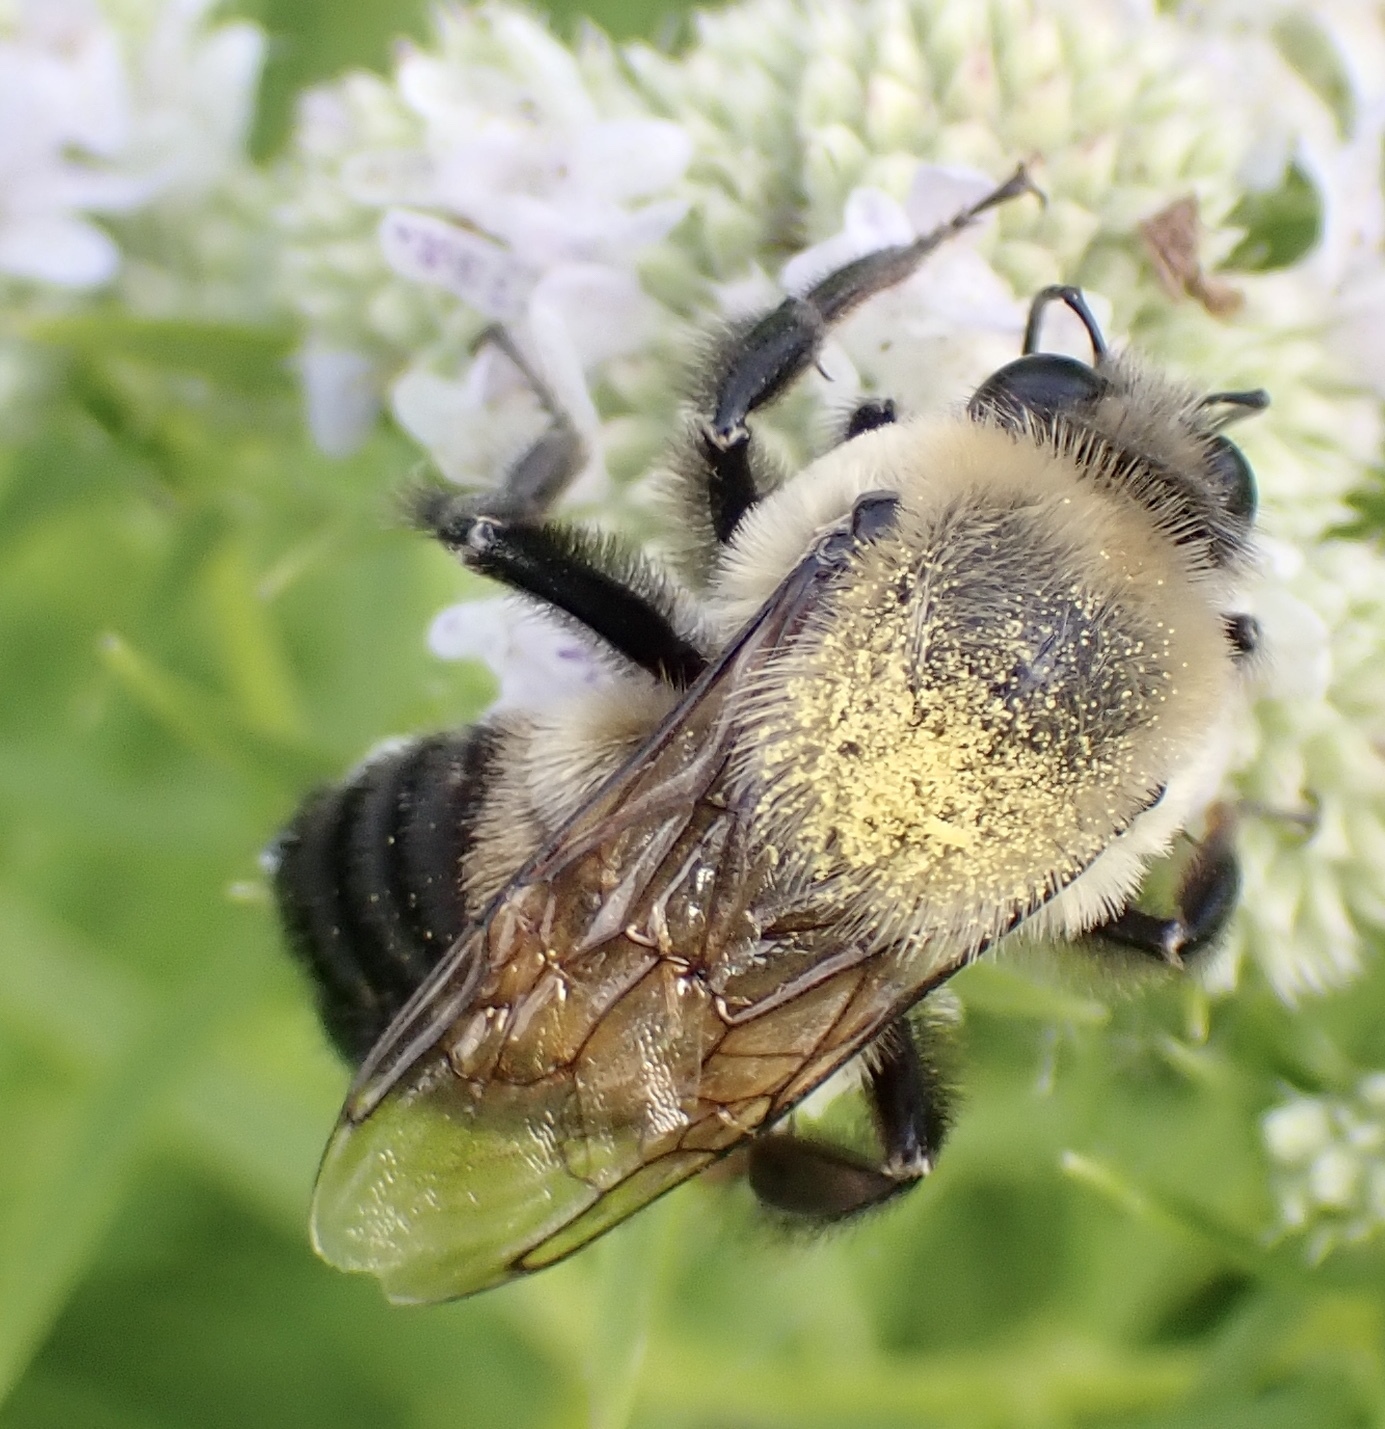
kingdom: Animalia
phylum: Arthropoda
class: Insecta
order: Hymenoptera
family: Apidae
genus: Bombus
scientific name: Bombus griseocollis
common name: Brown-belted bumble bee
